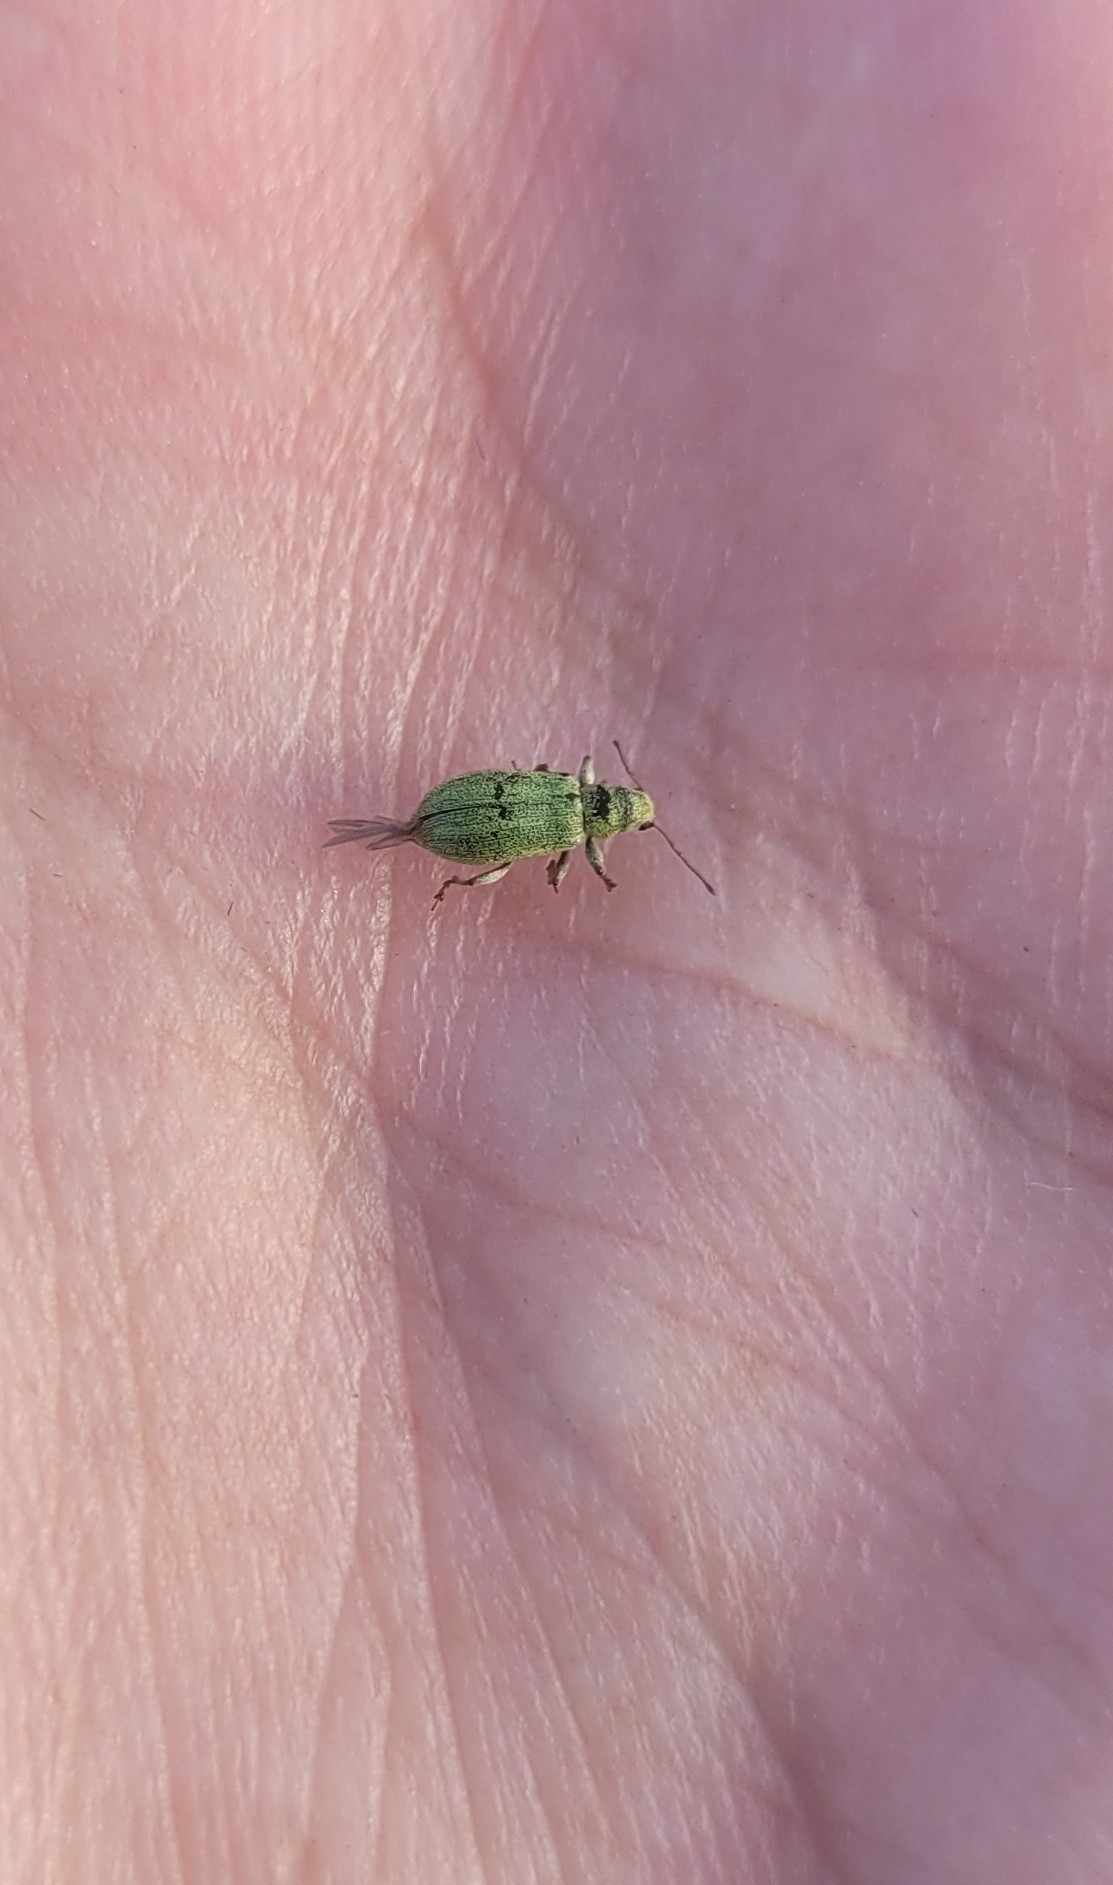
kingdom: Animalia
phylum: Arthropoda
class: Insecta
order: Coleoptera
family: Curculionidae
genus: Pachyrhinus
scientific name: Pachyrhinus lethierryi
